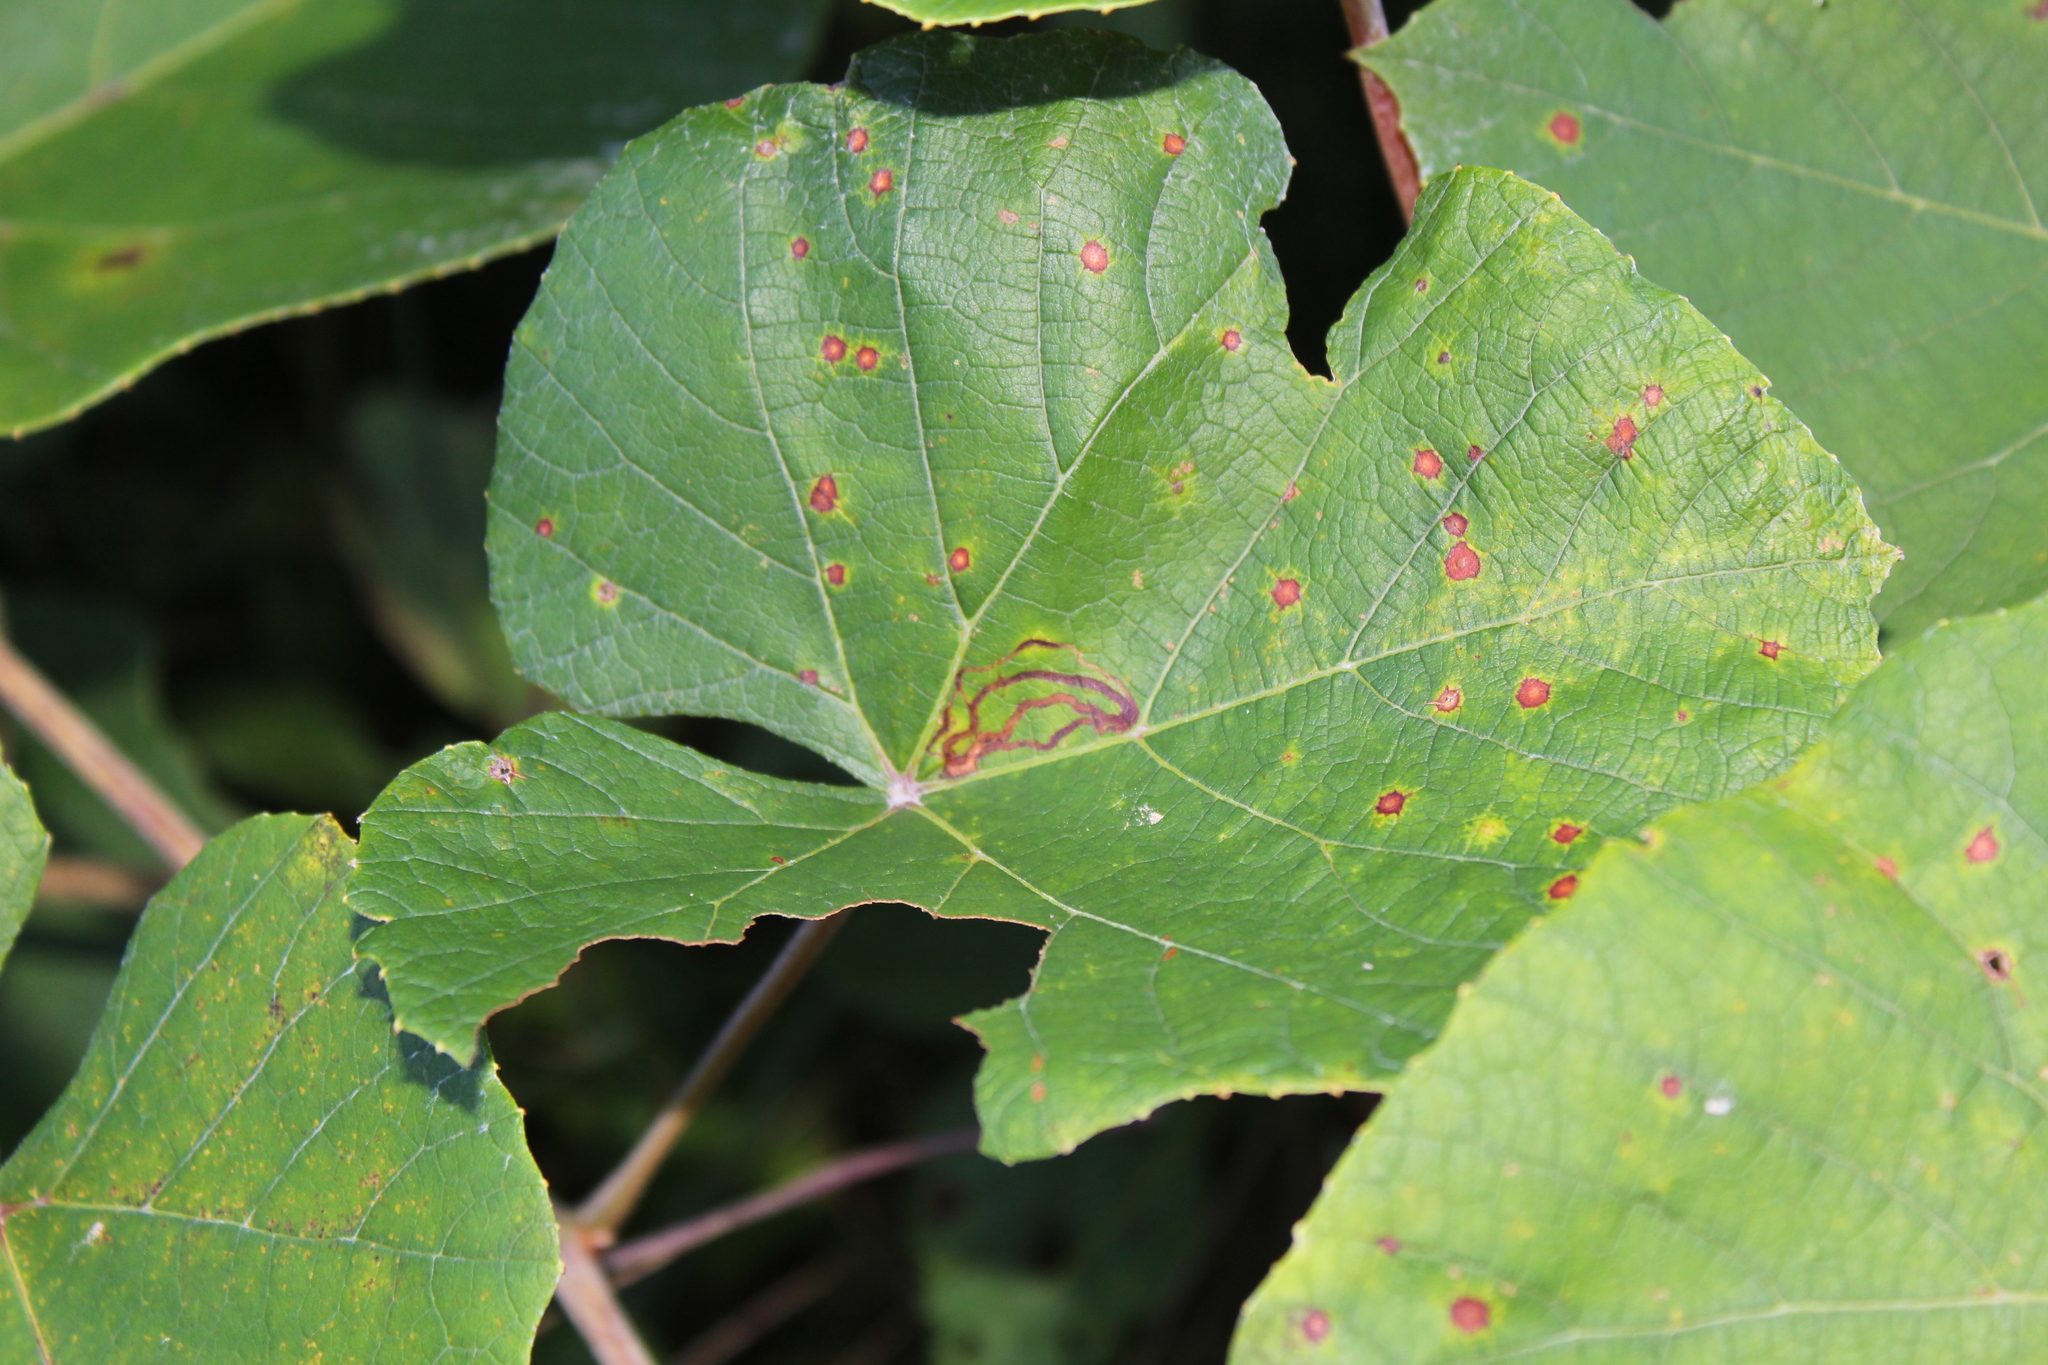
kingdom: Animalia
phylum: Arthropoda
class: Insecta
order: Lepidoptera
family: Gracillariidae
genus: Phyllocnistis
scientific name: Phyllocnistis vitifoliella
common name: Grape leaf-miner moth
